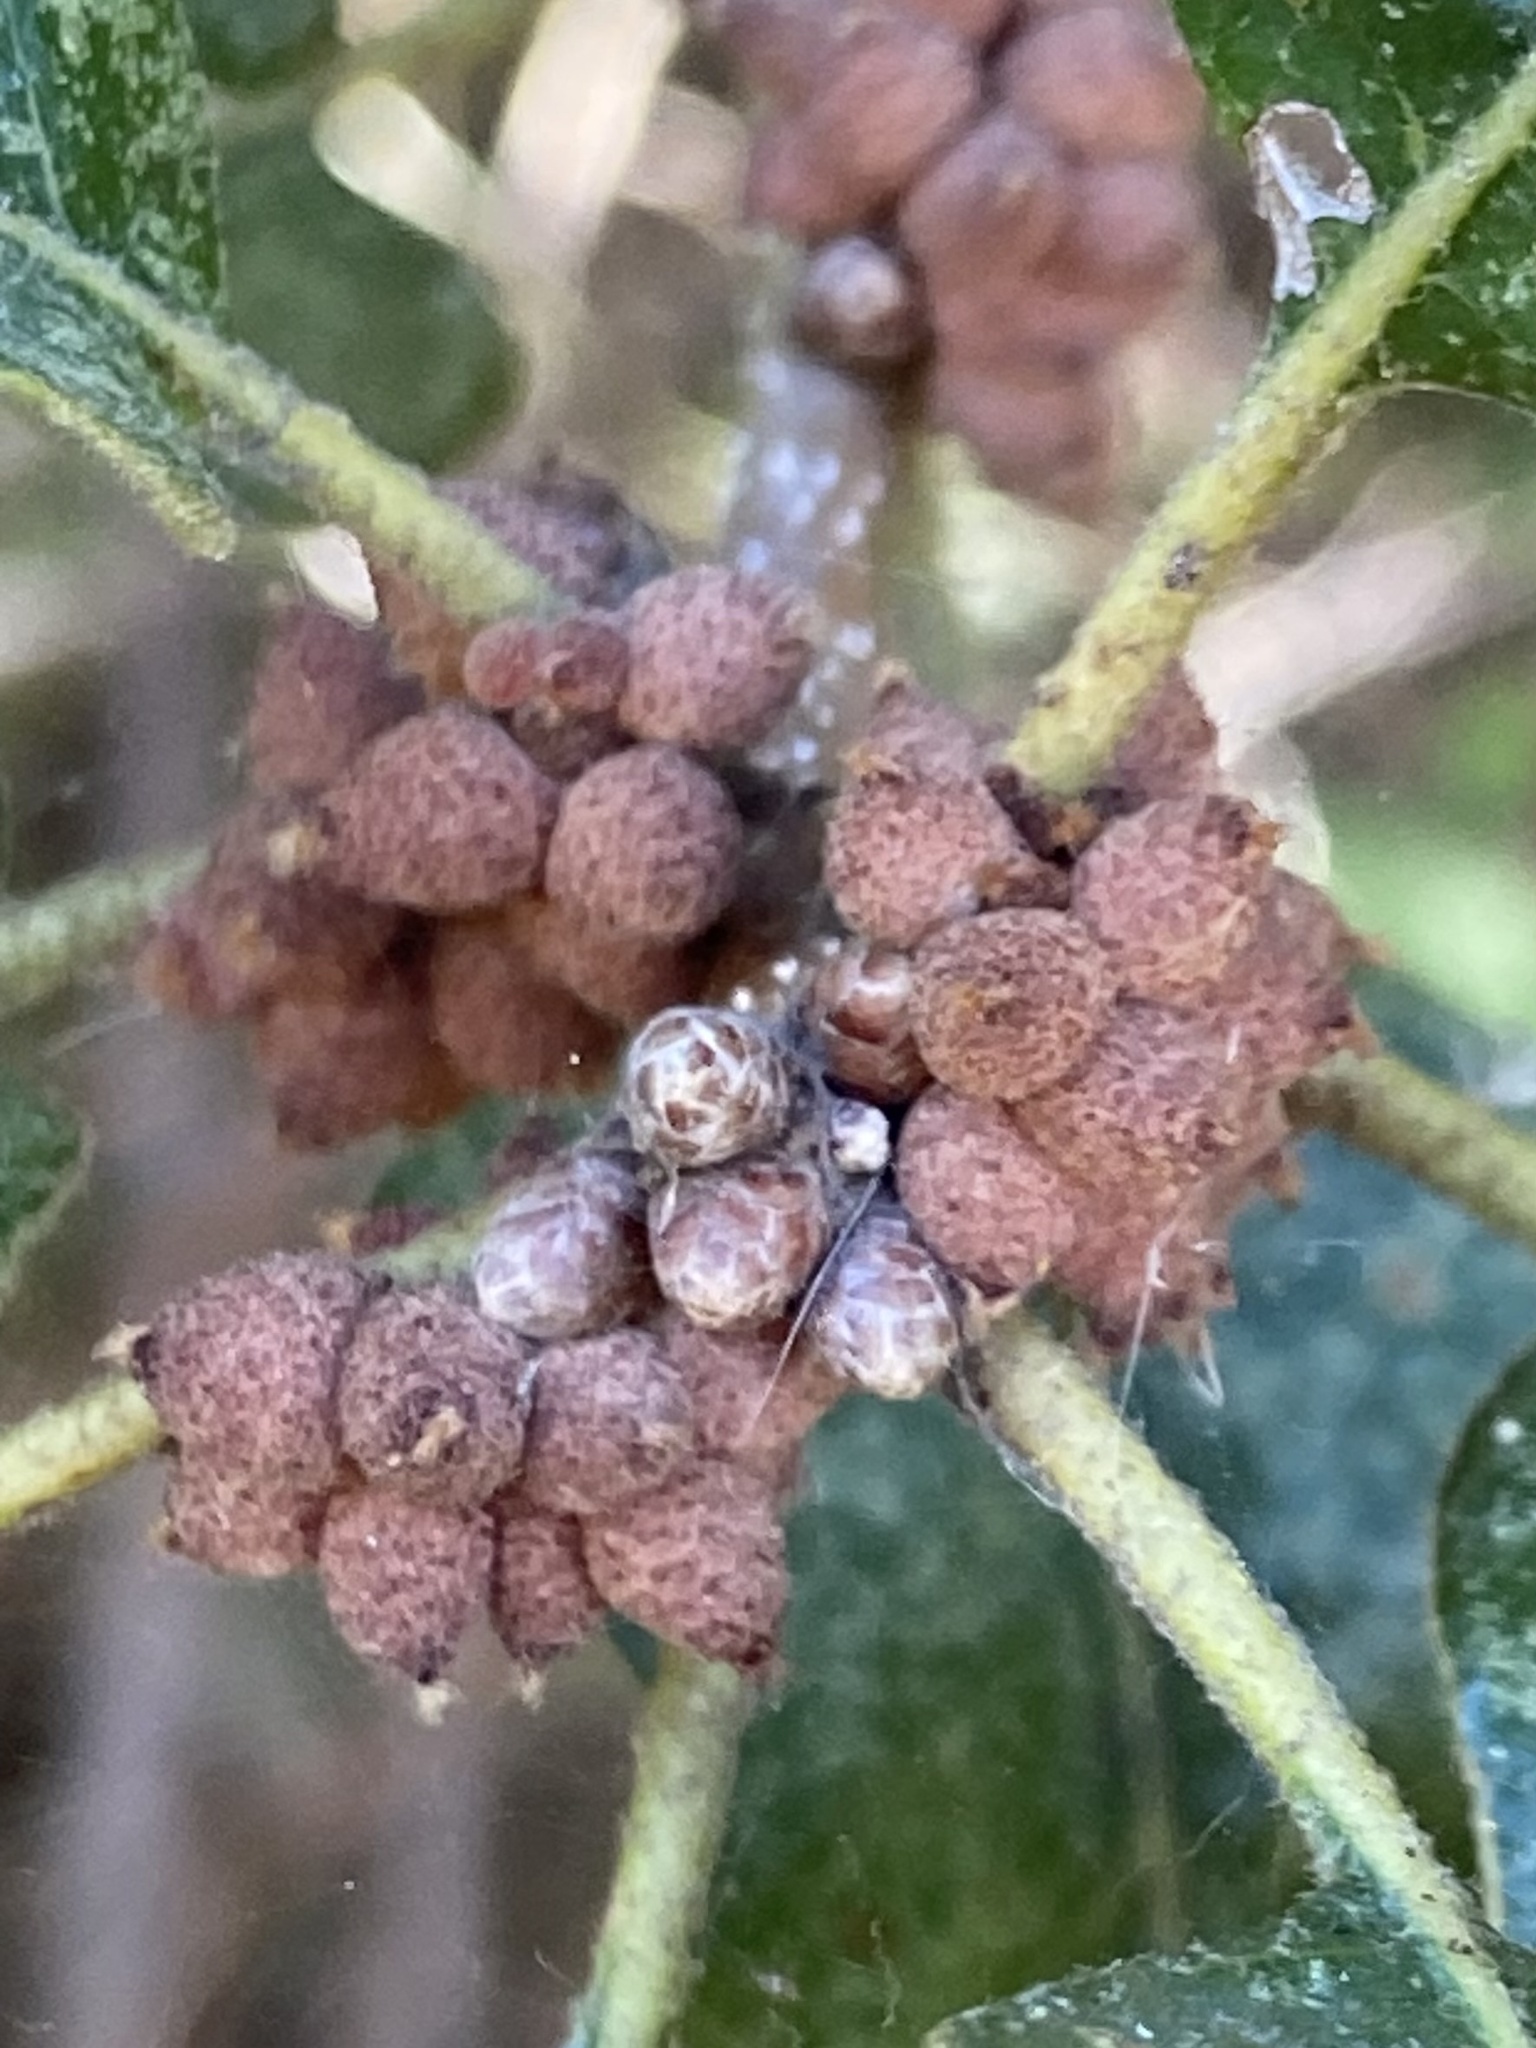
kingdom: Animalia
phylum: Arthropoda
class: Insecta
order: Hymenoptera
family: Cynipidae
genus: Andricus
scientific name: Andricus
